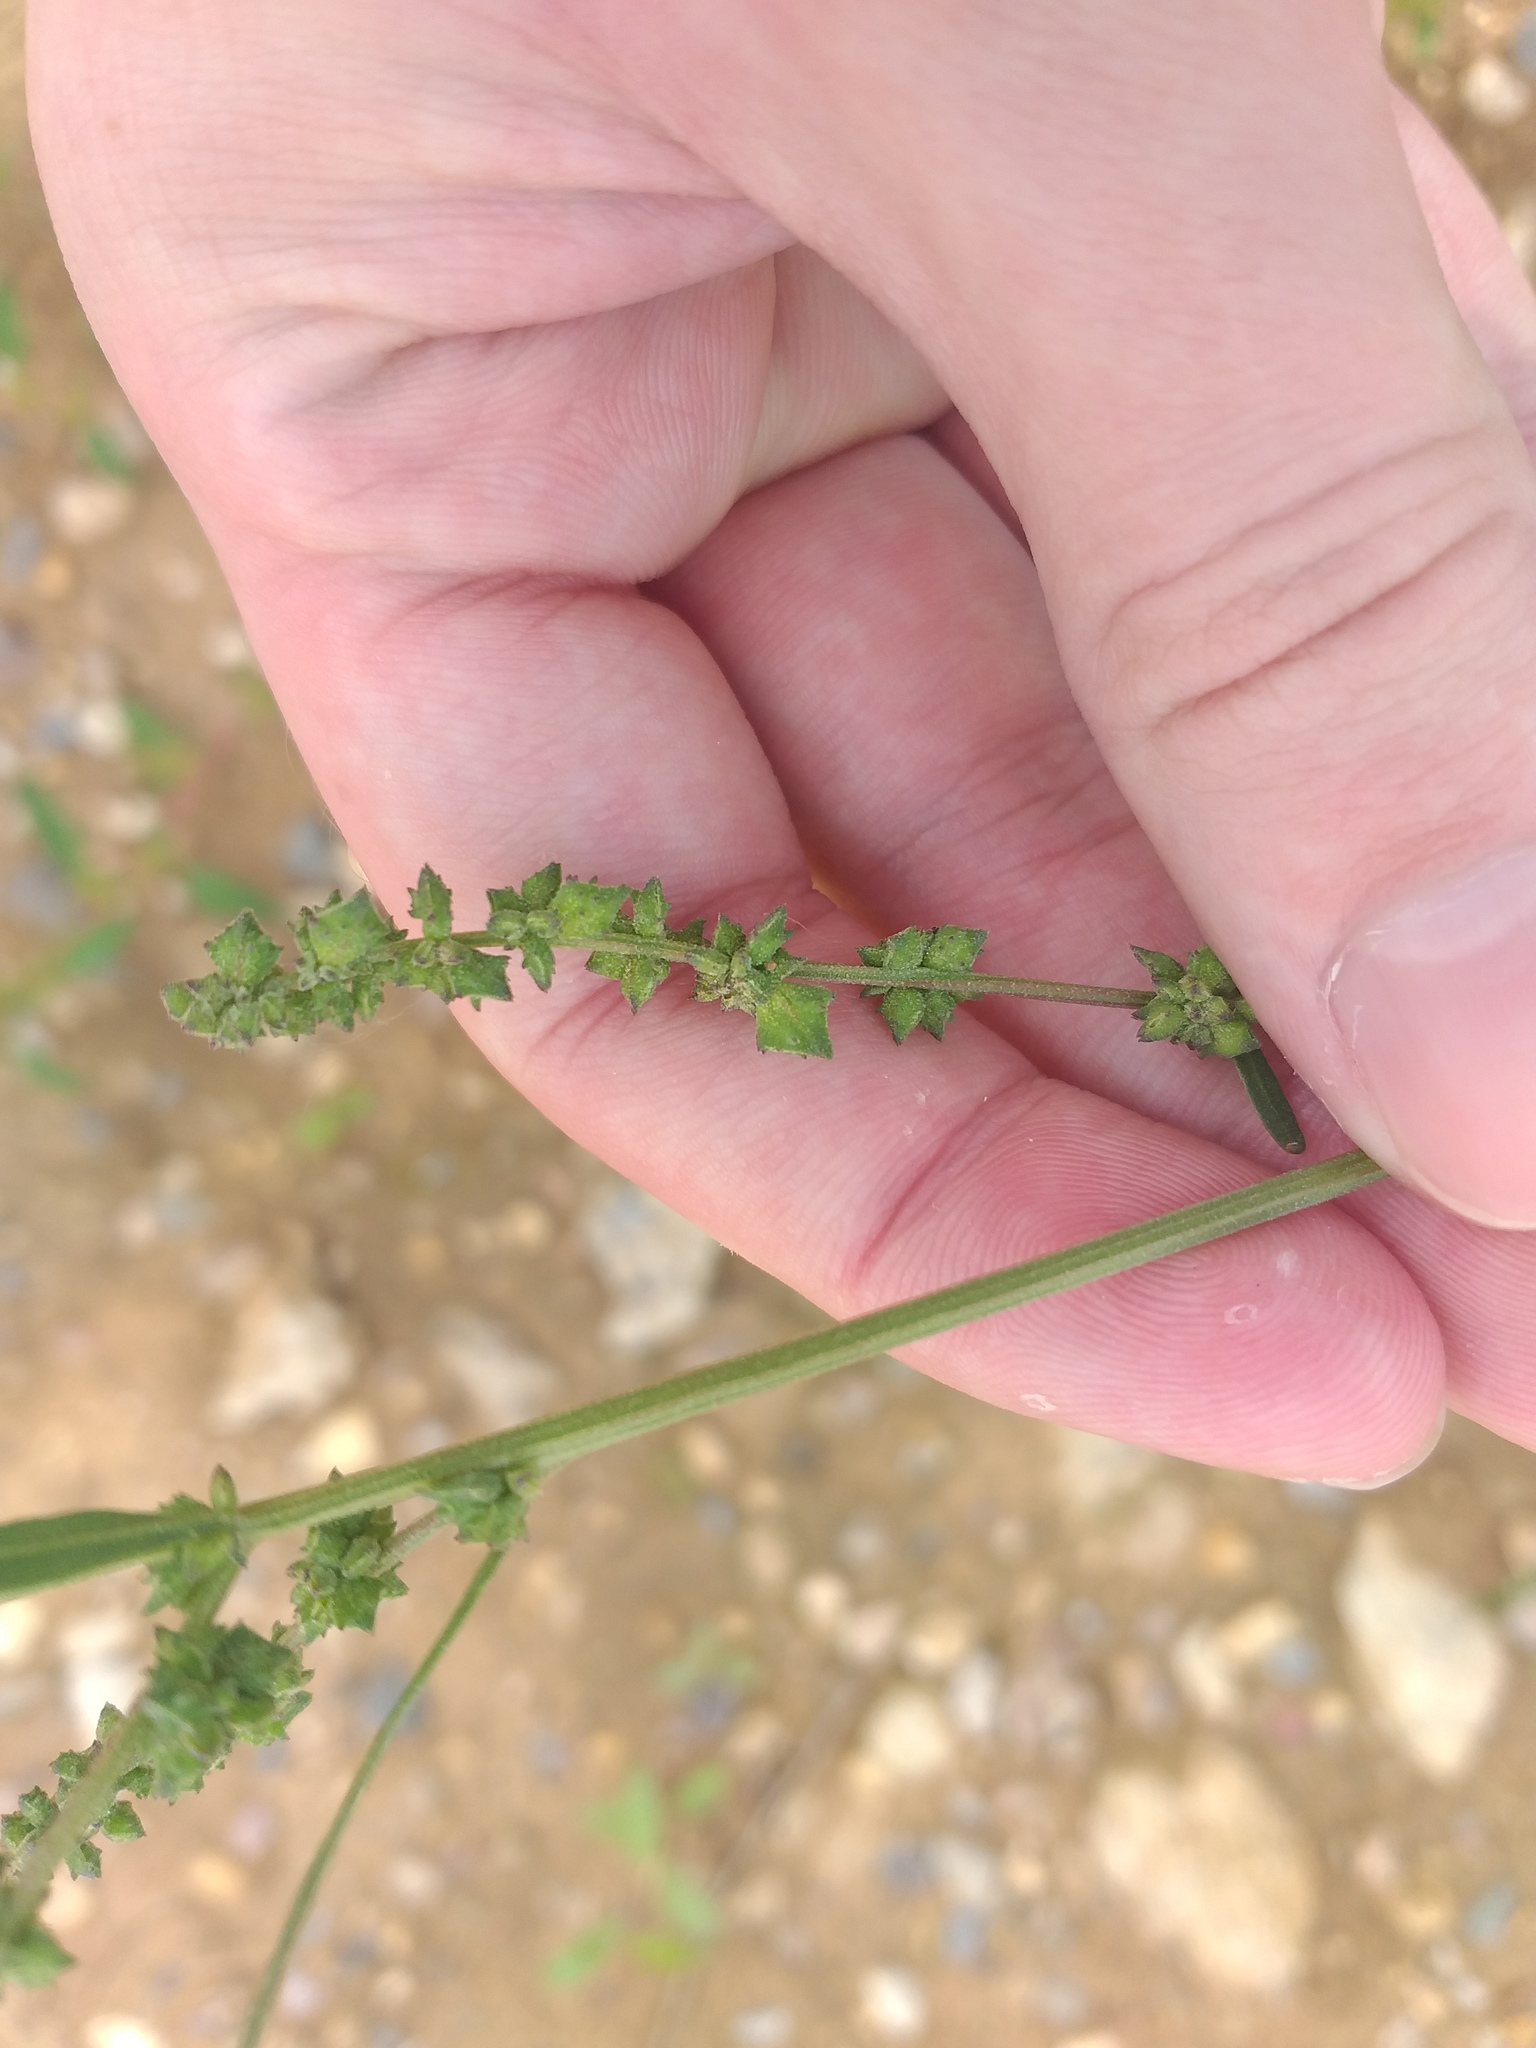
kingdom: Plantae
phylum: Tracheophyta
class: Magnoliopsida
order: Caryophyllales
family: Amaranthaceae
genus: Atriplex
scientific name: Atriplex patula
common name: Common orache
